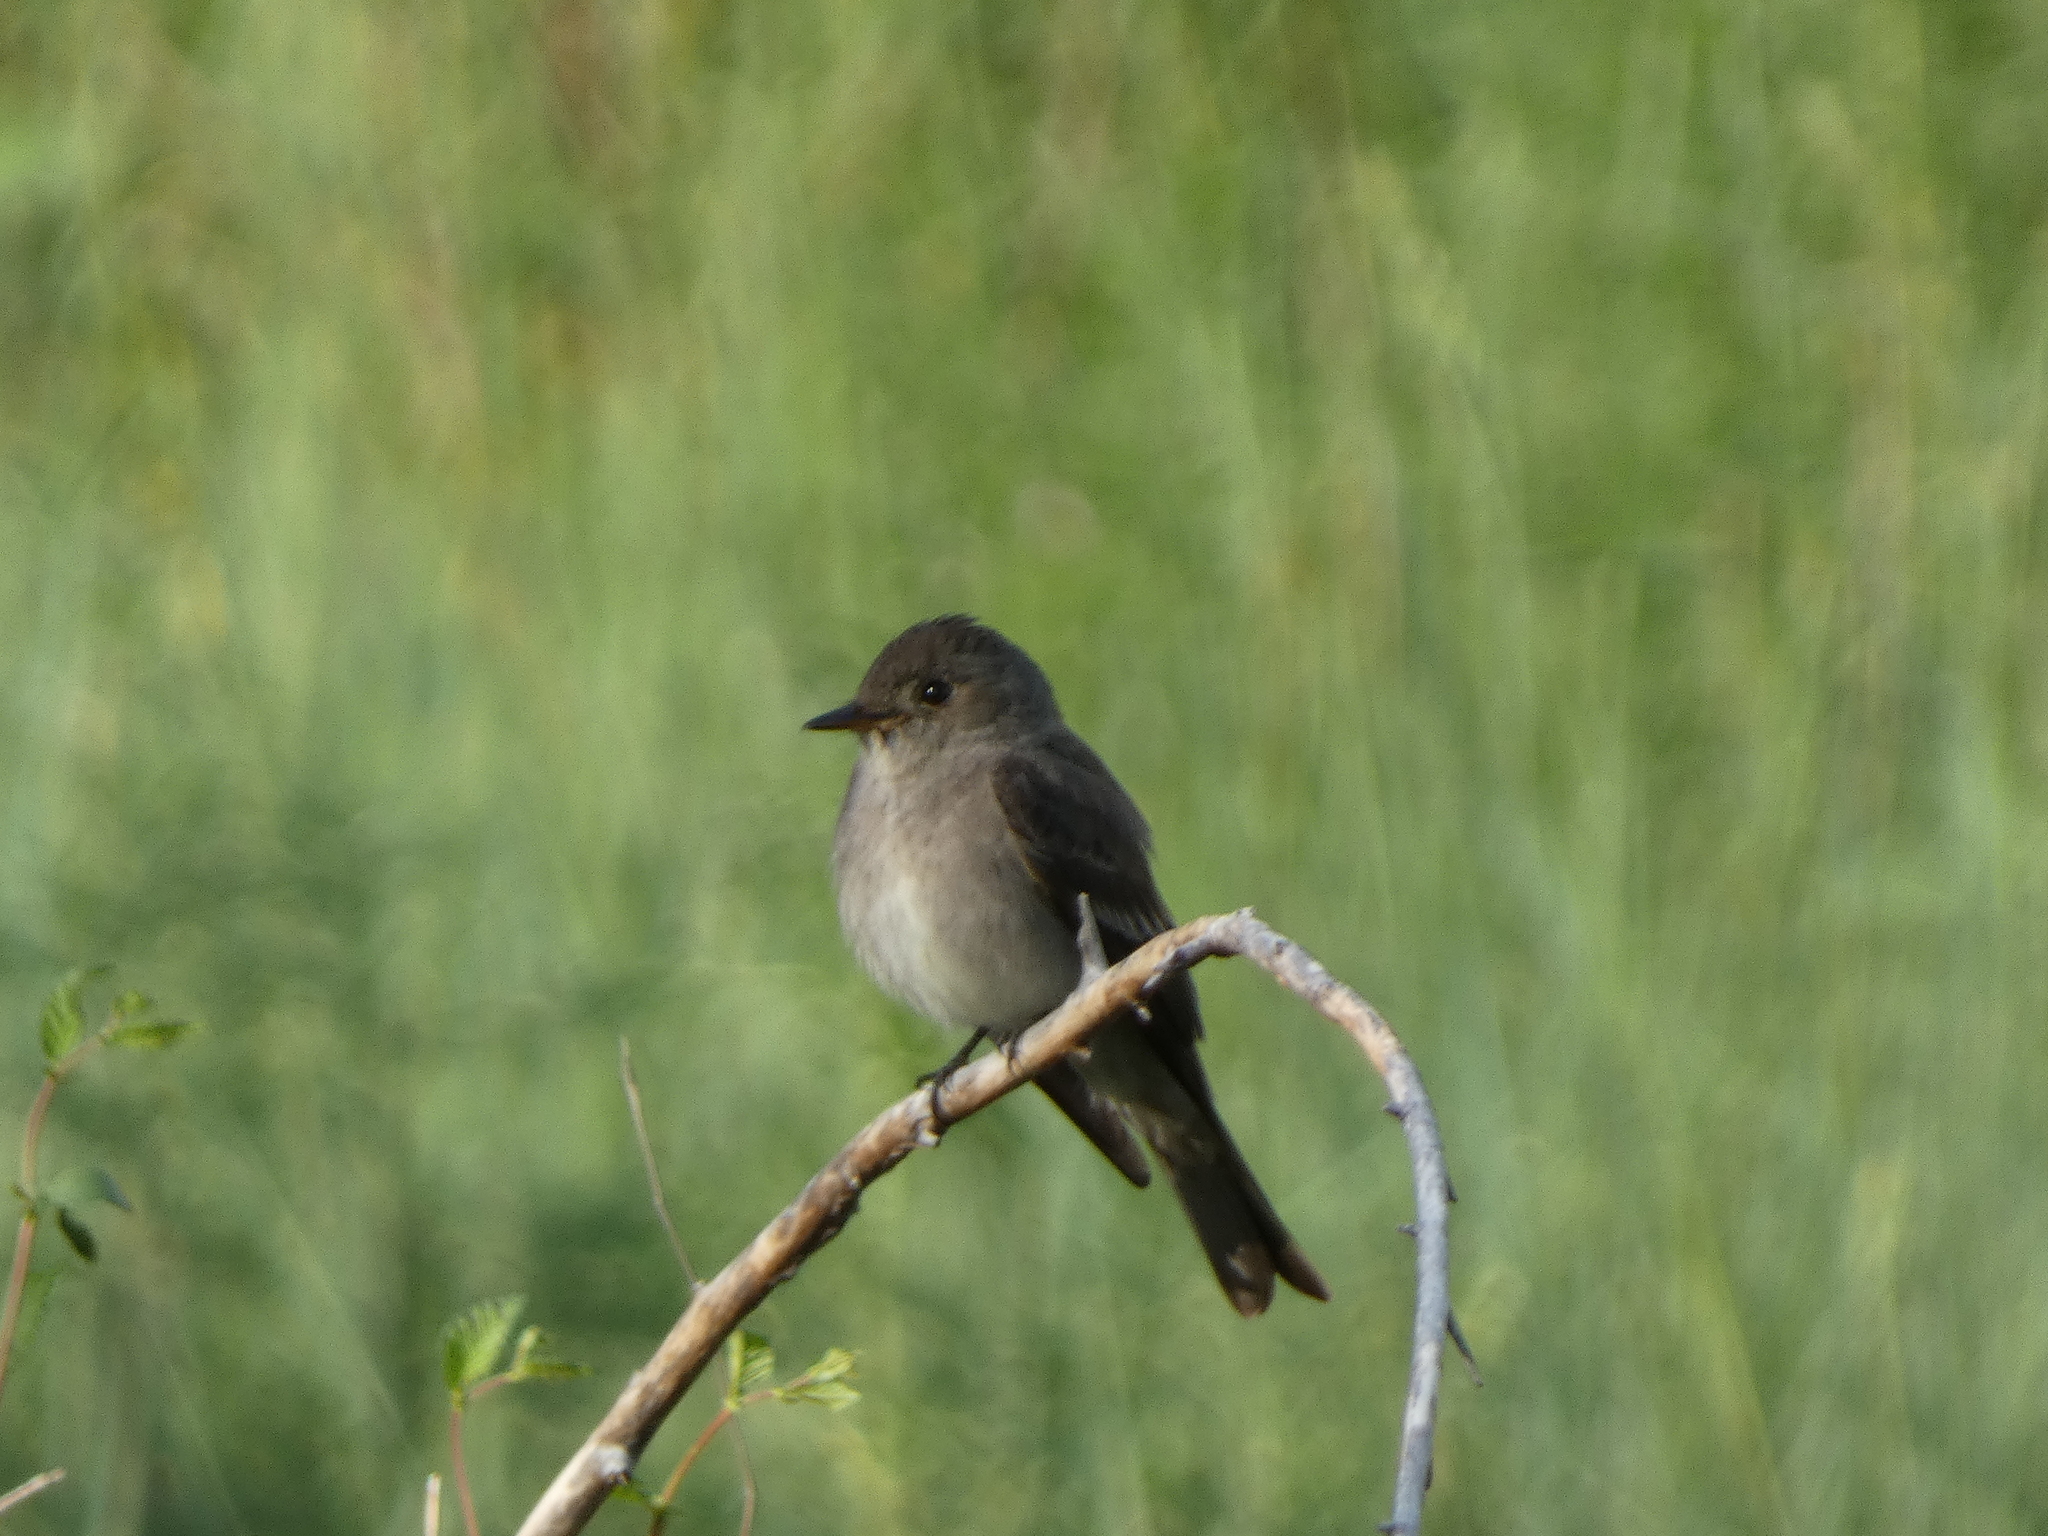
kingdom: Animalia
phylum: Chordata
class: Aves
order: Passeriformes
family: Tyrannidae
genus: Contopus
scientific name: Contopus sordidulus
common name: Western wood-pewee
